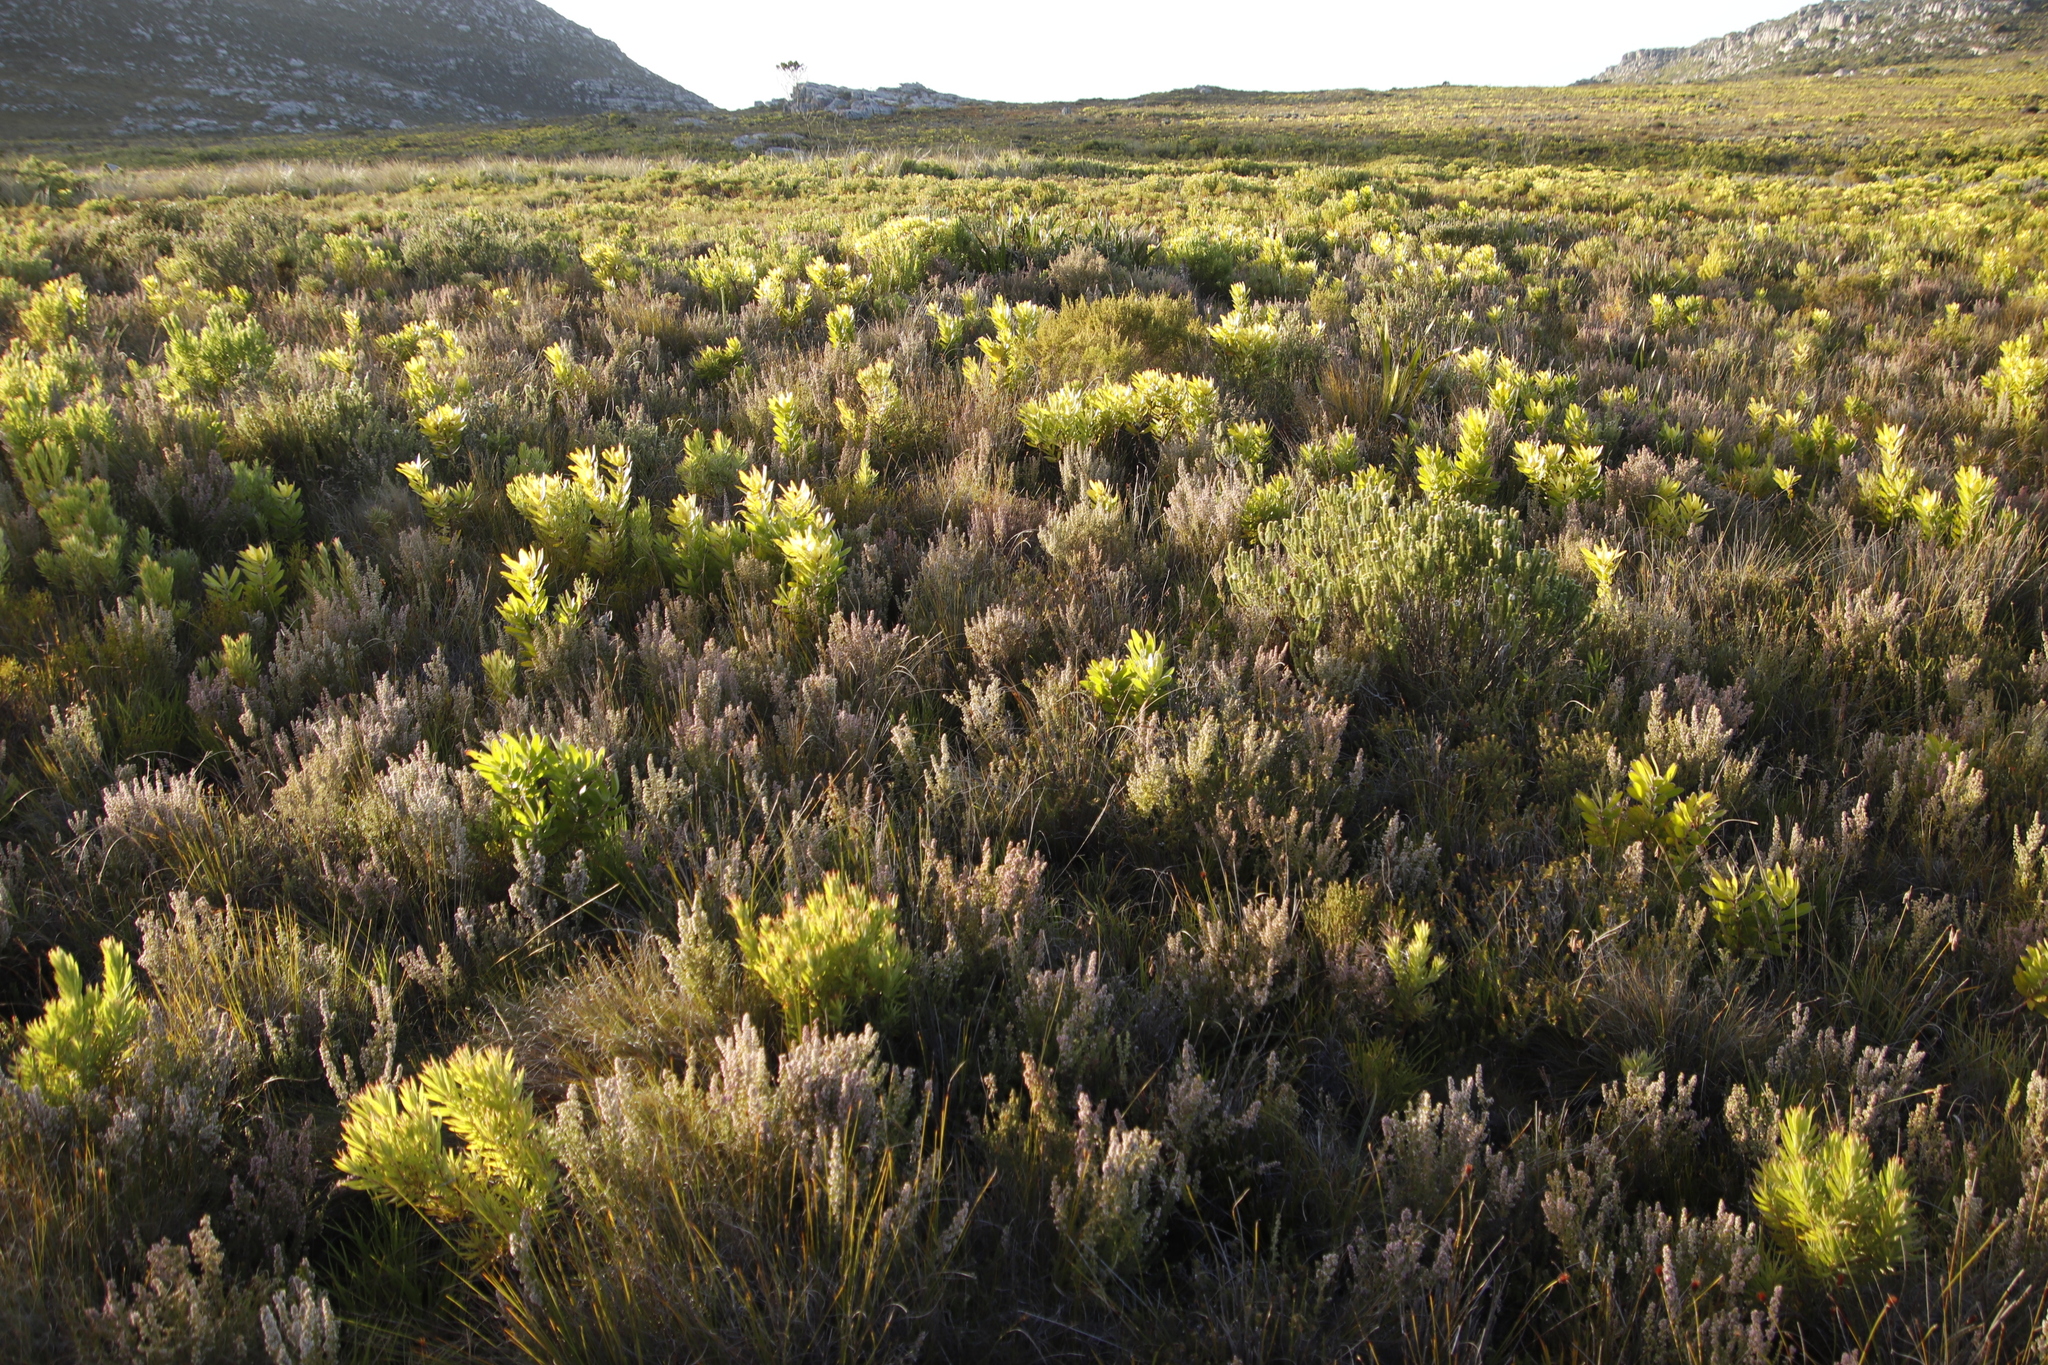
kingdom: Plantae
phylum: Tracheophyta
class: Magnoliopsida
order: Ericales
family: Ericaceae
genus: Erica
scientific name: Erica hispidula
